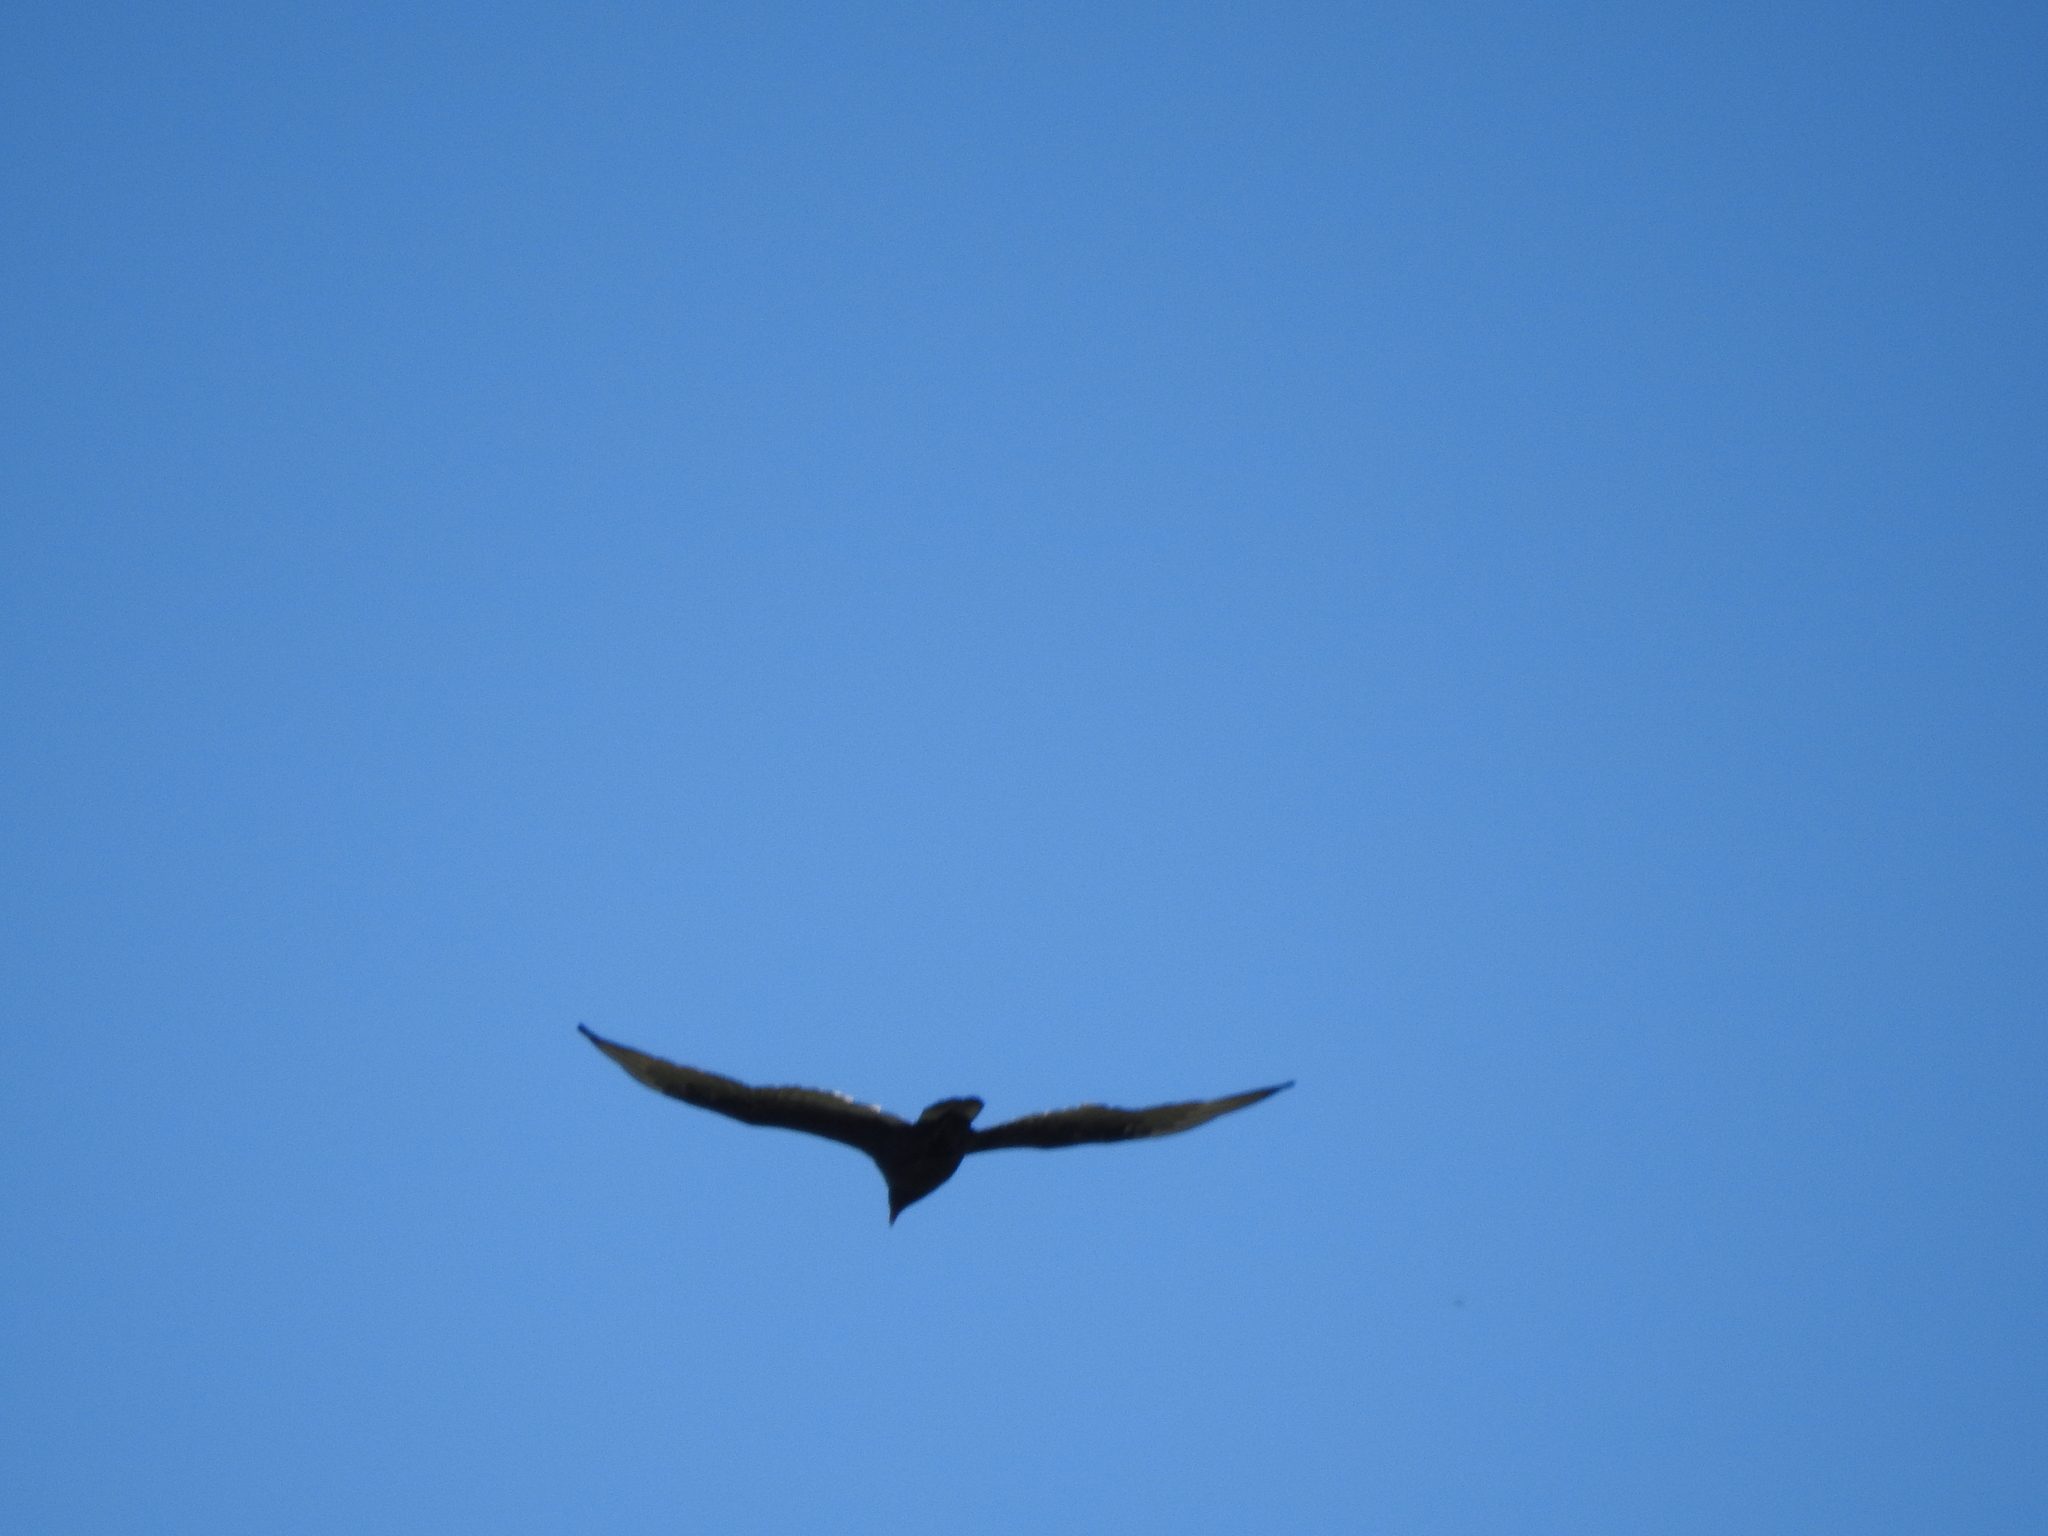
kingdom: Animalia
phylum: Chordata
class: Aves
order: Accipitriformes
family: Cathartidae
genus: Cathartes
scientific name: Cathartes aura
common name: Turkey vulture
